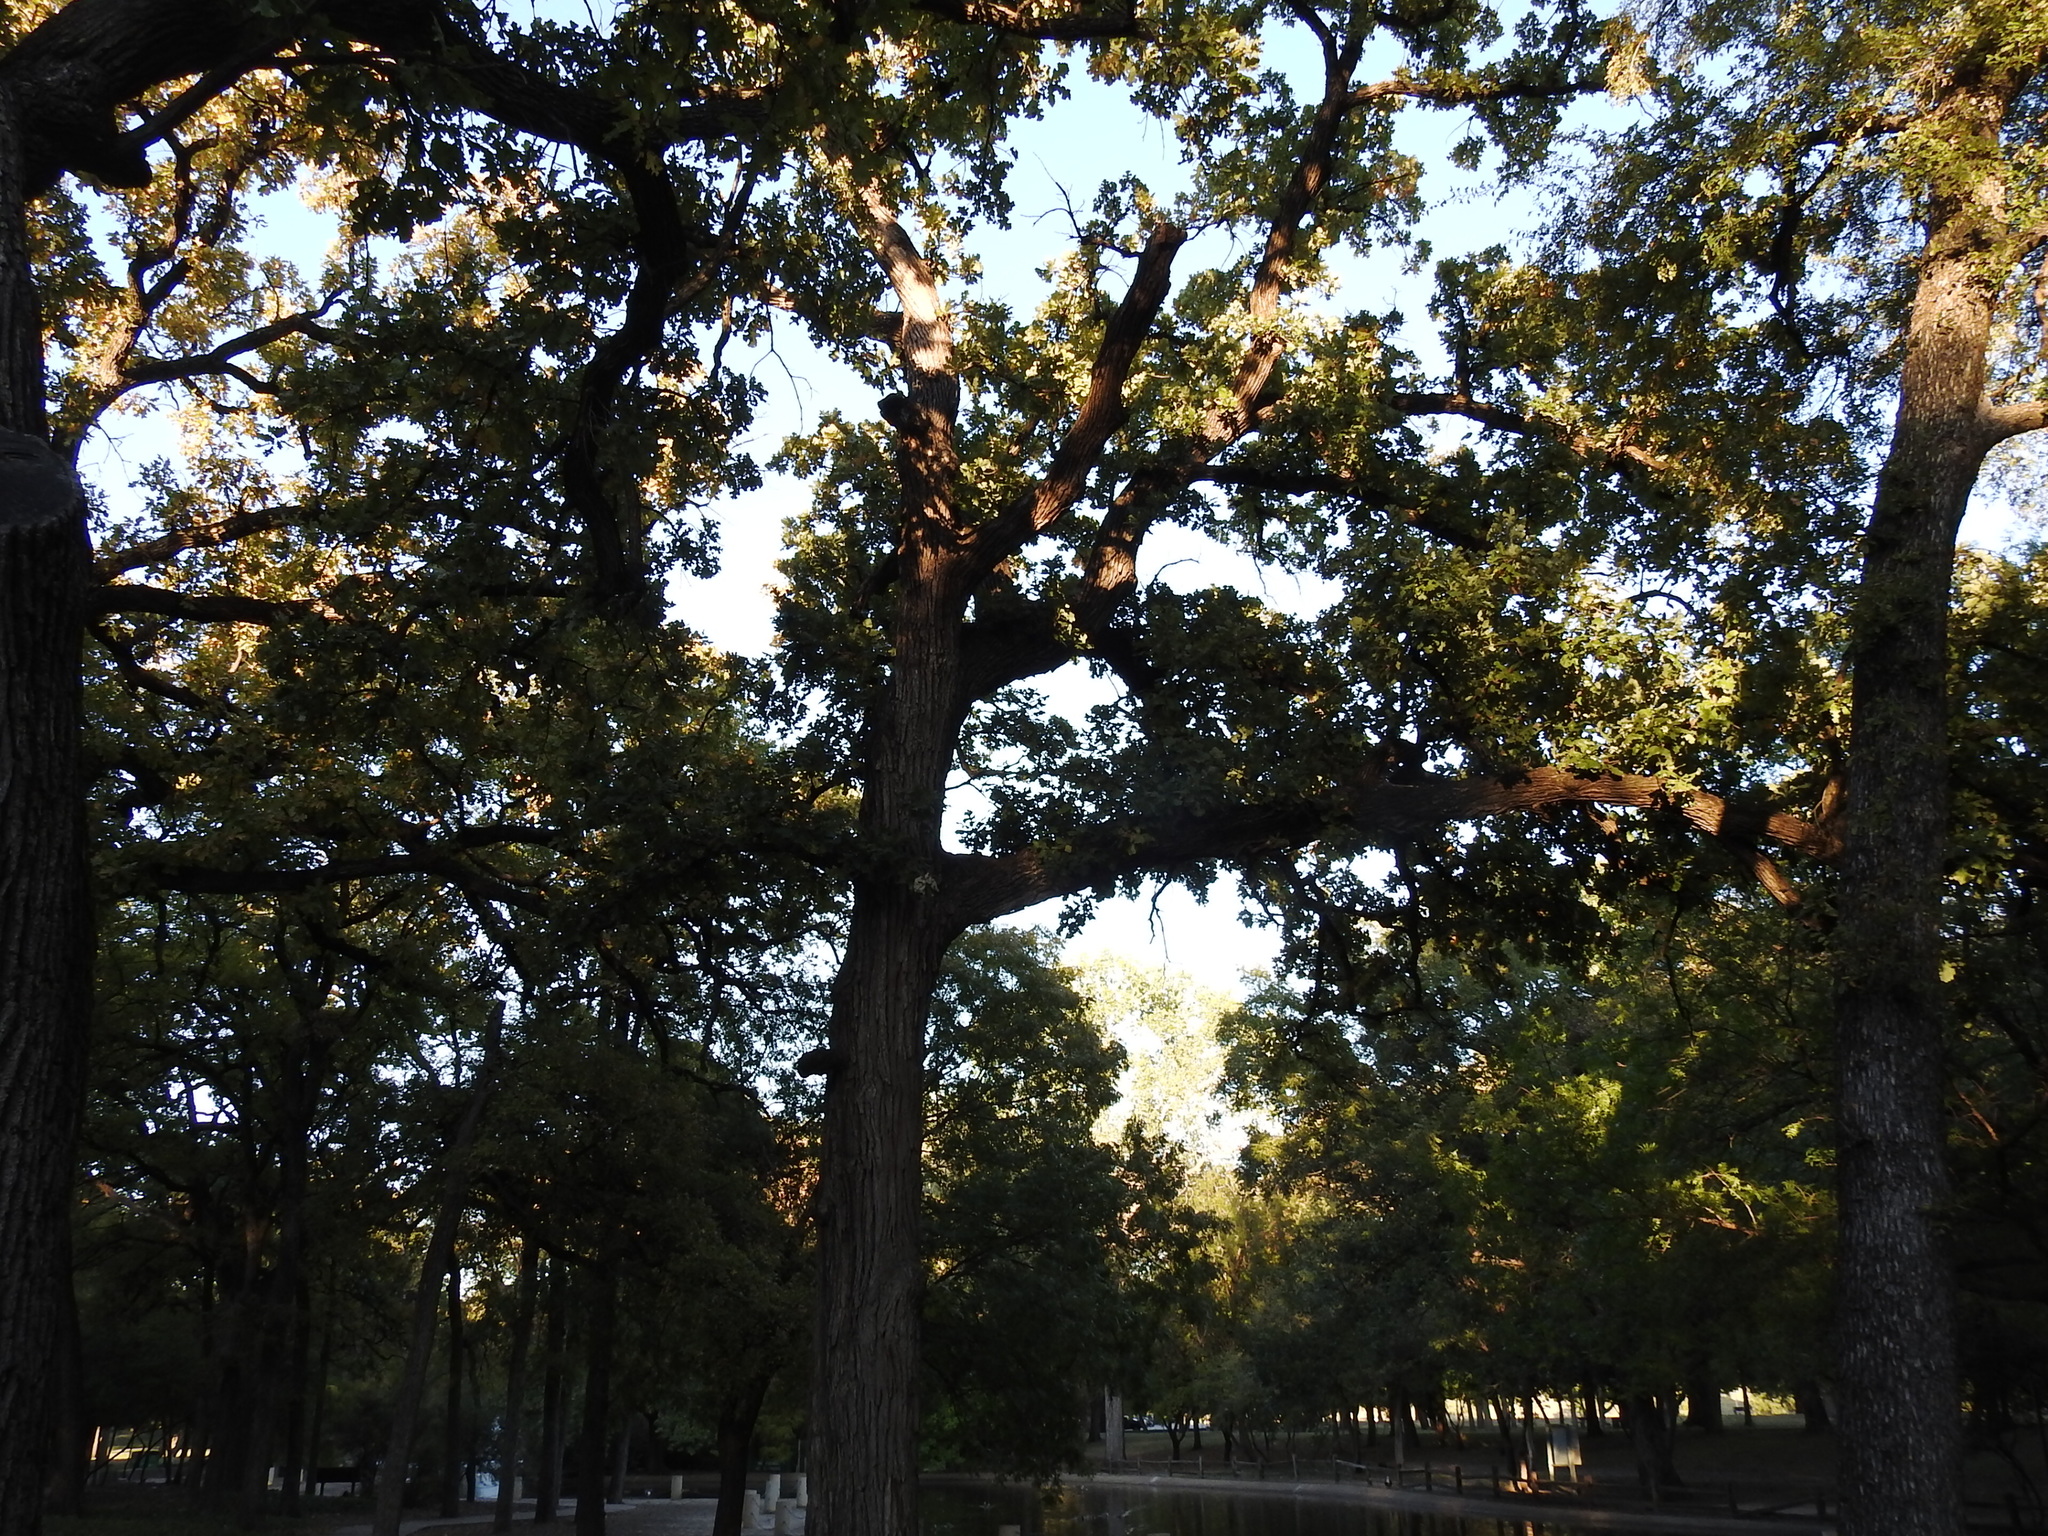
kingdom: Plantae
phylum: Tracheophyta
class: Magnoliopsida
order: Fagales
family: Fagaceae
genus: Quercus
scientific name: Quercus macrocarpa
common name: Bur oak
